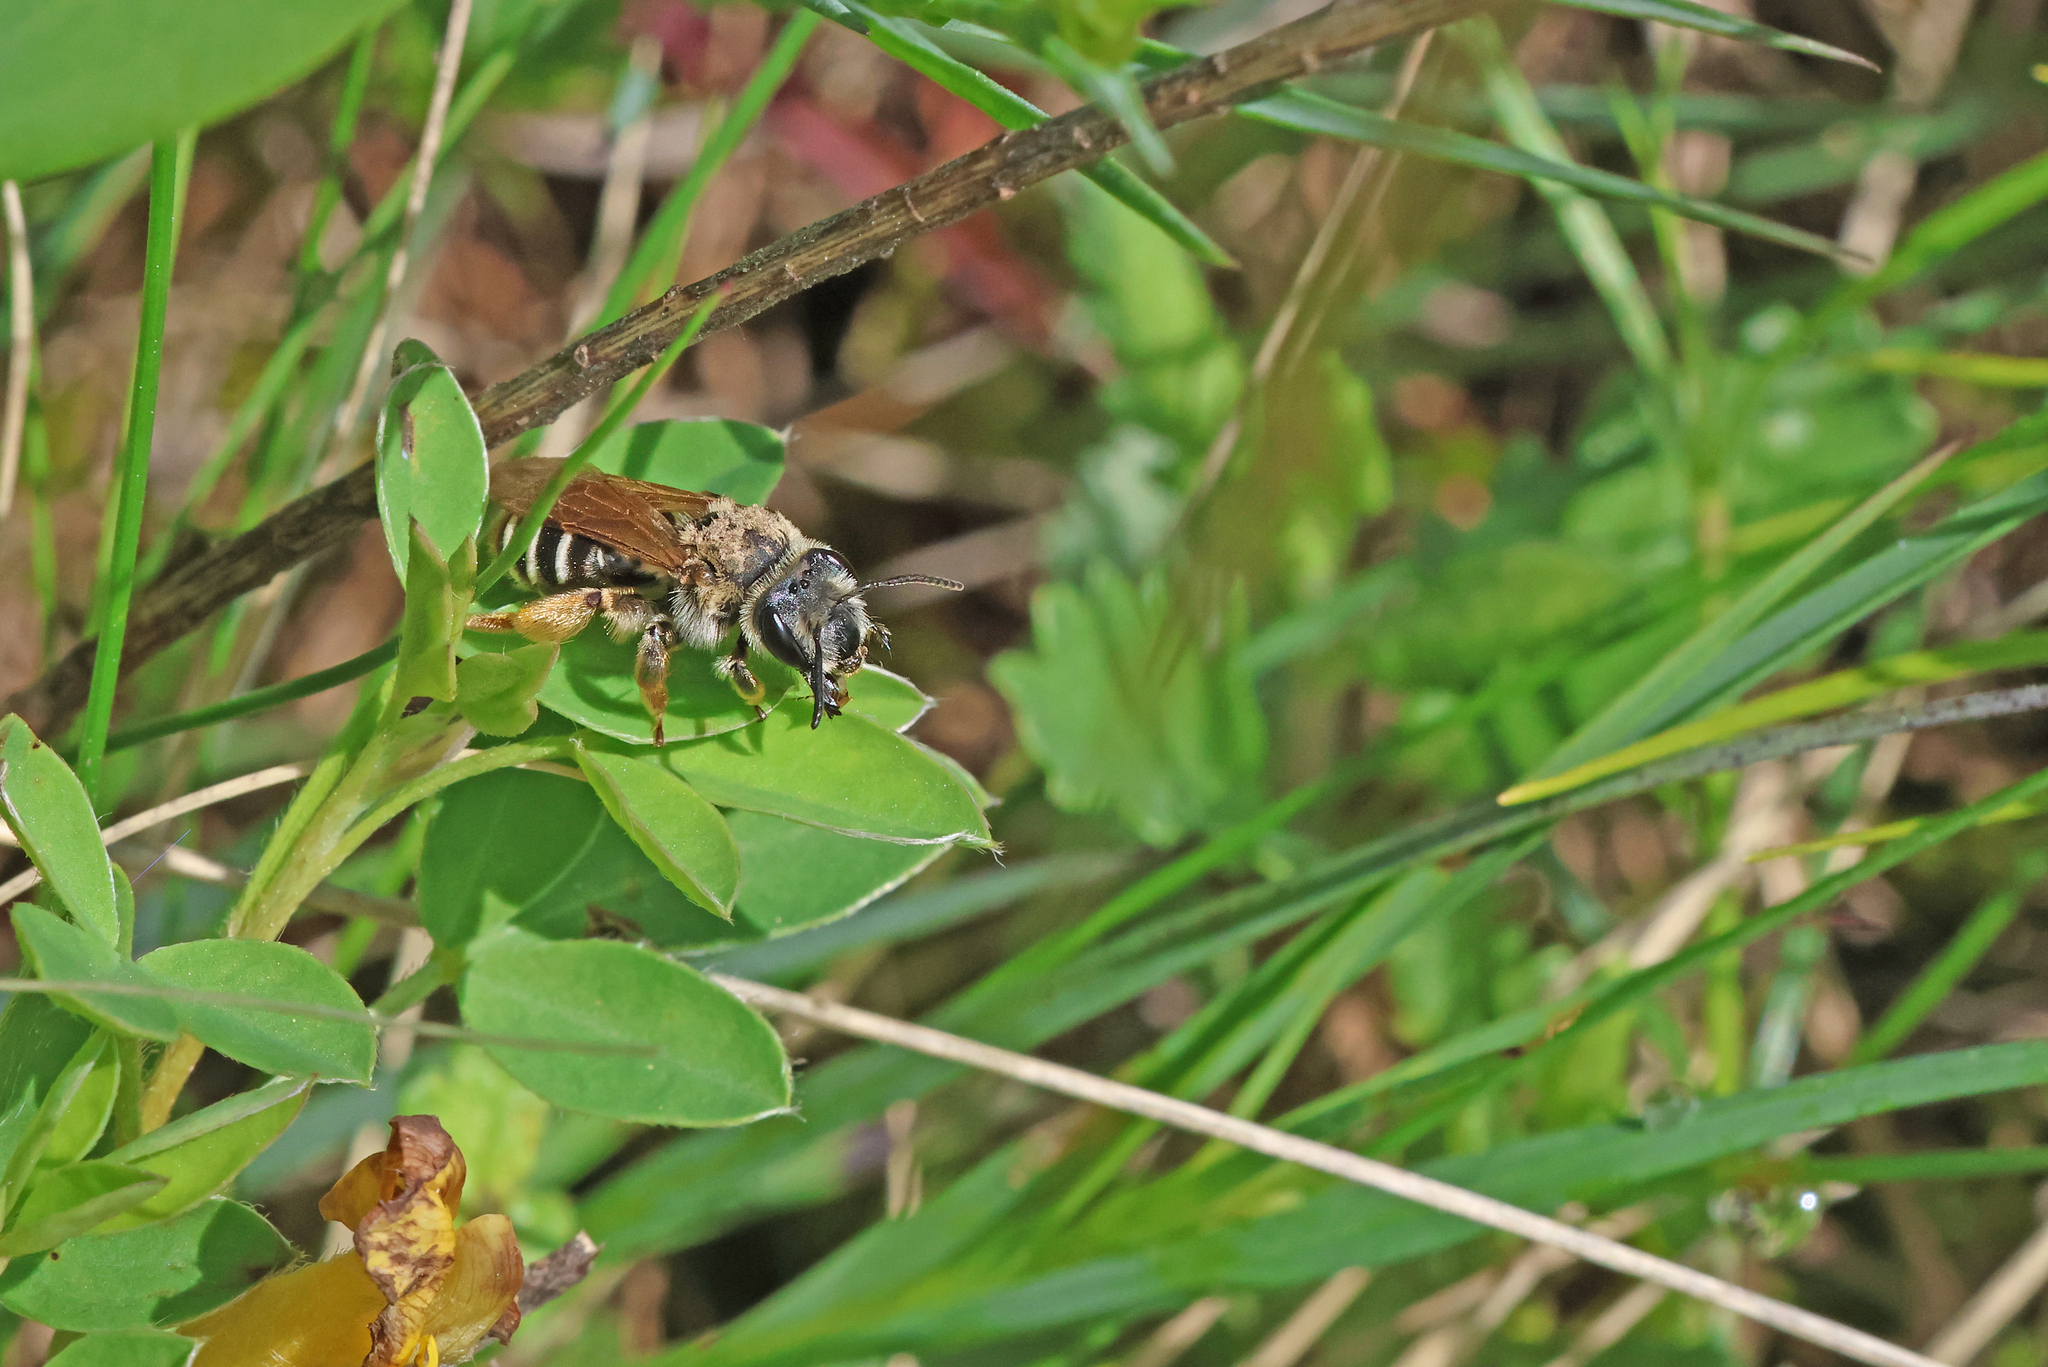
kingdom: Animalia
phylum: Arthropoda
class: Insecta
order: Hymenoptera
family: Andrenidae
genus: Andrena
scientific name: Andrena aberrans
